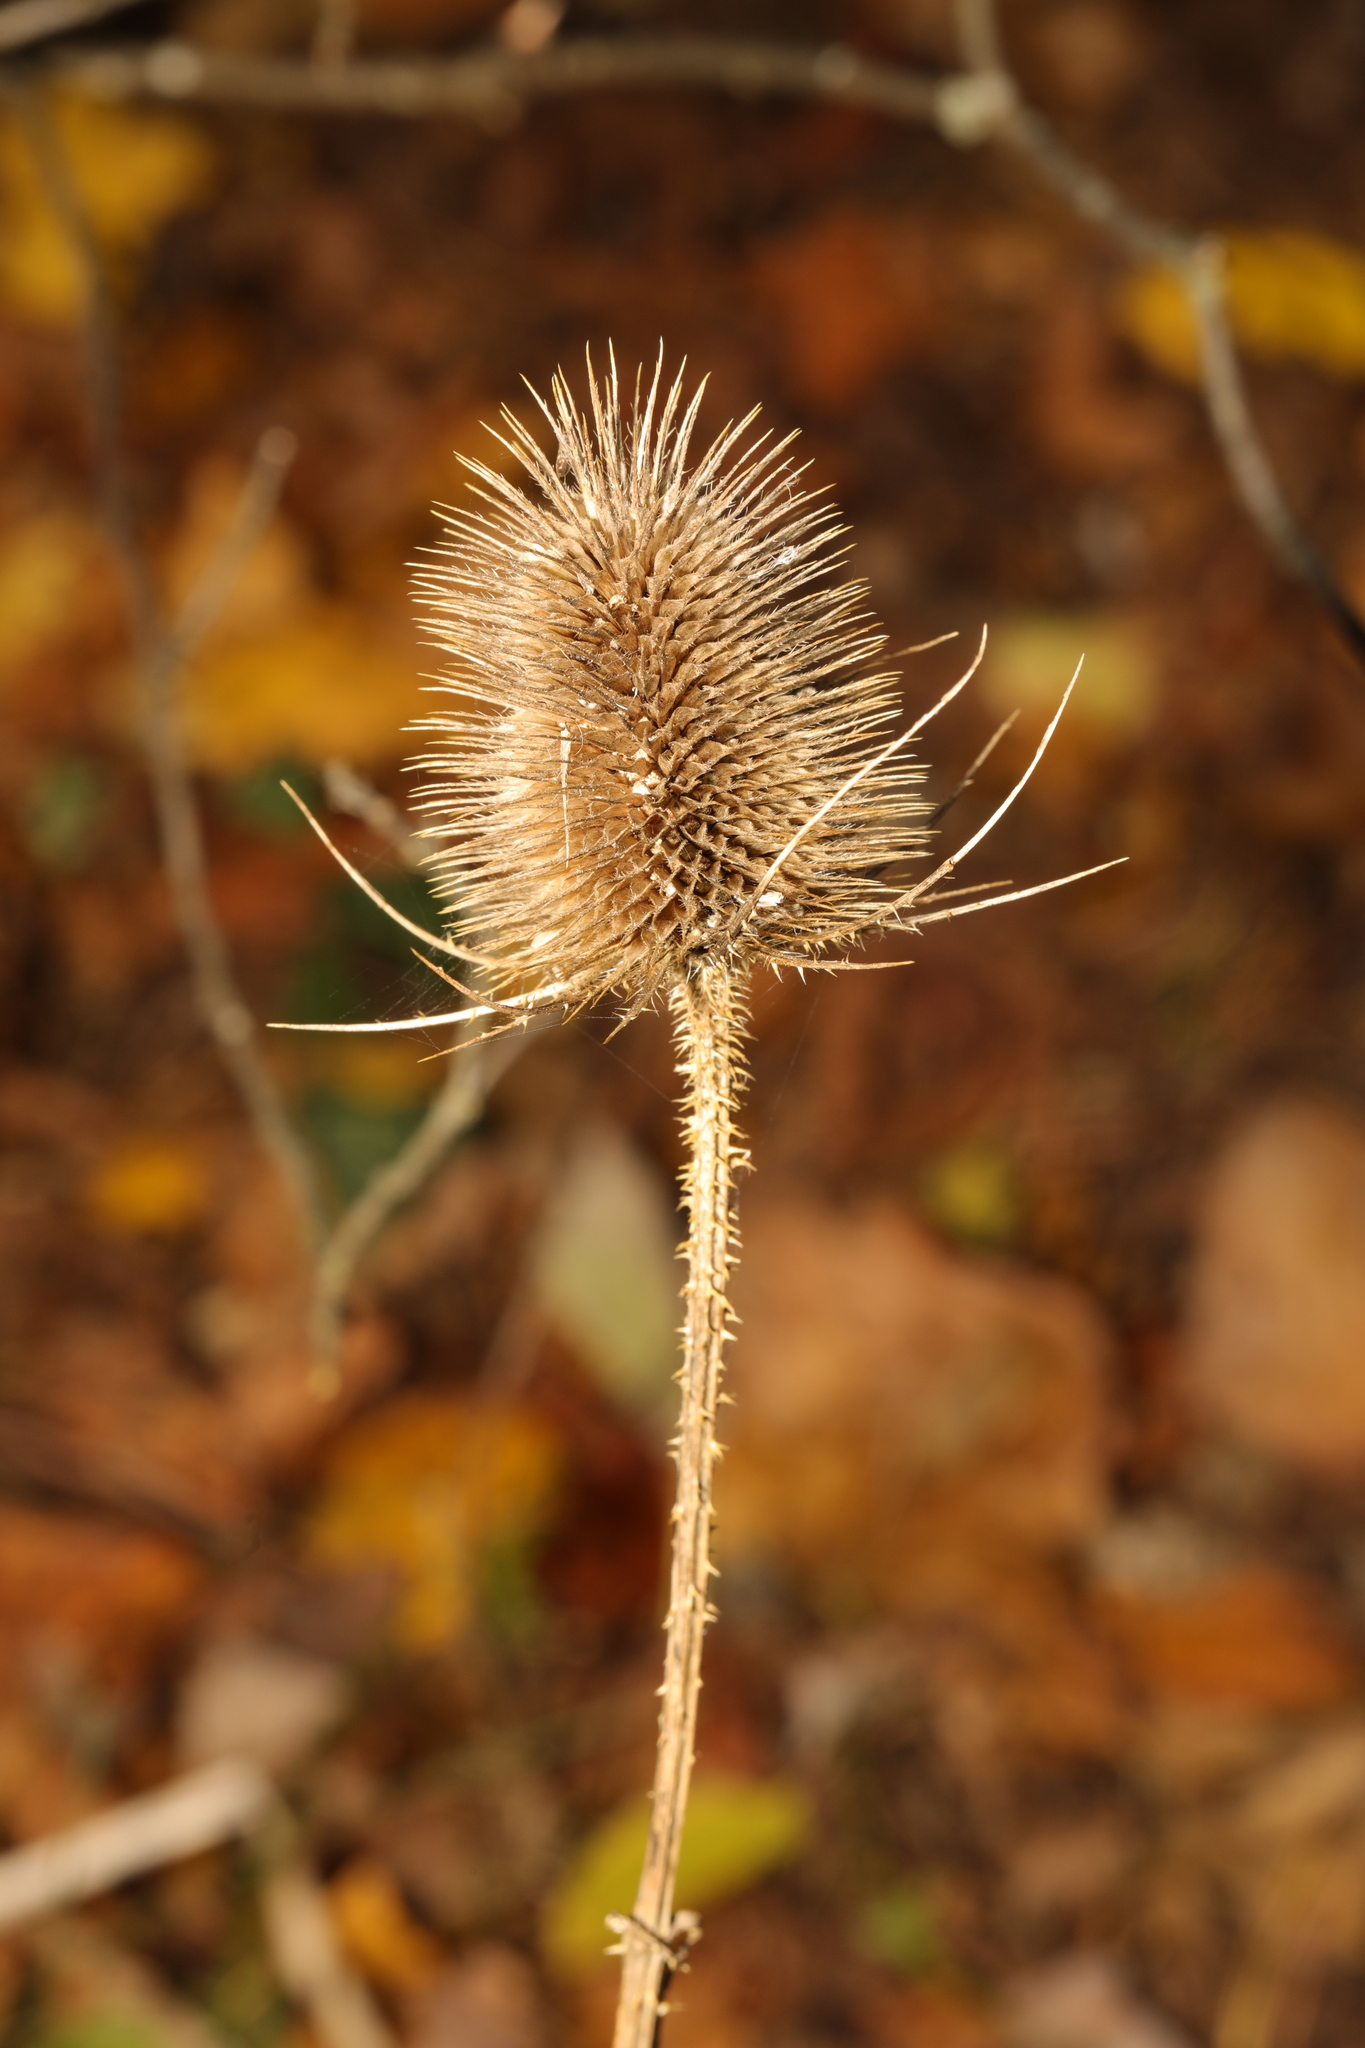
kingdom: Plantae
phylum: Tracheophyta
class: Magnoliopsida
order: Dipsacales
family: Caprifoliaceae
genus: Dipsacus
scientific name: Dipsacus fullonum
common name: Teasel
